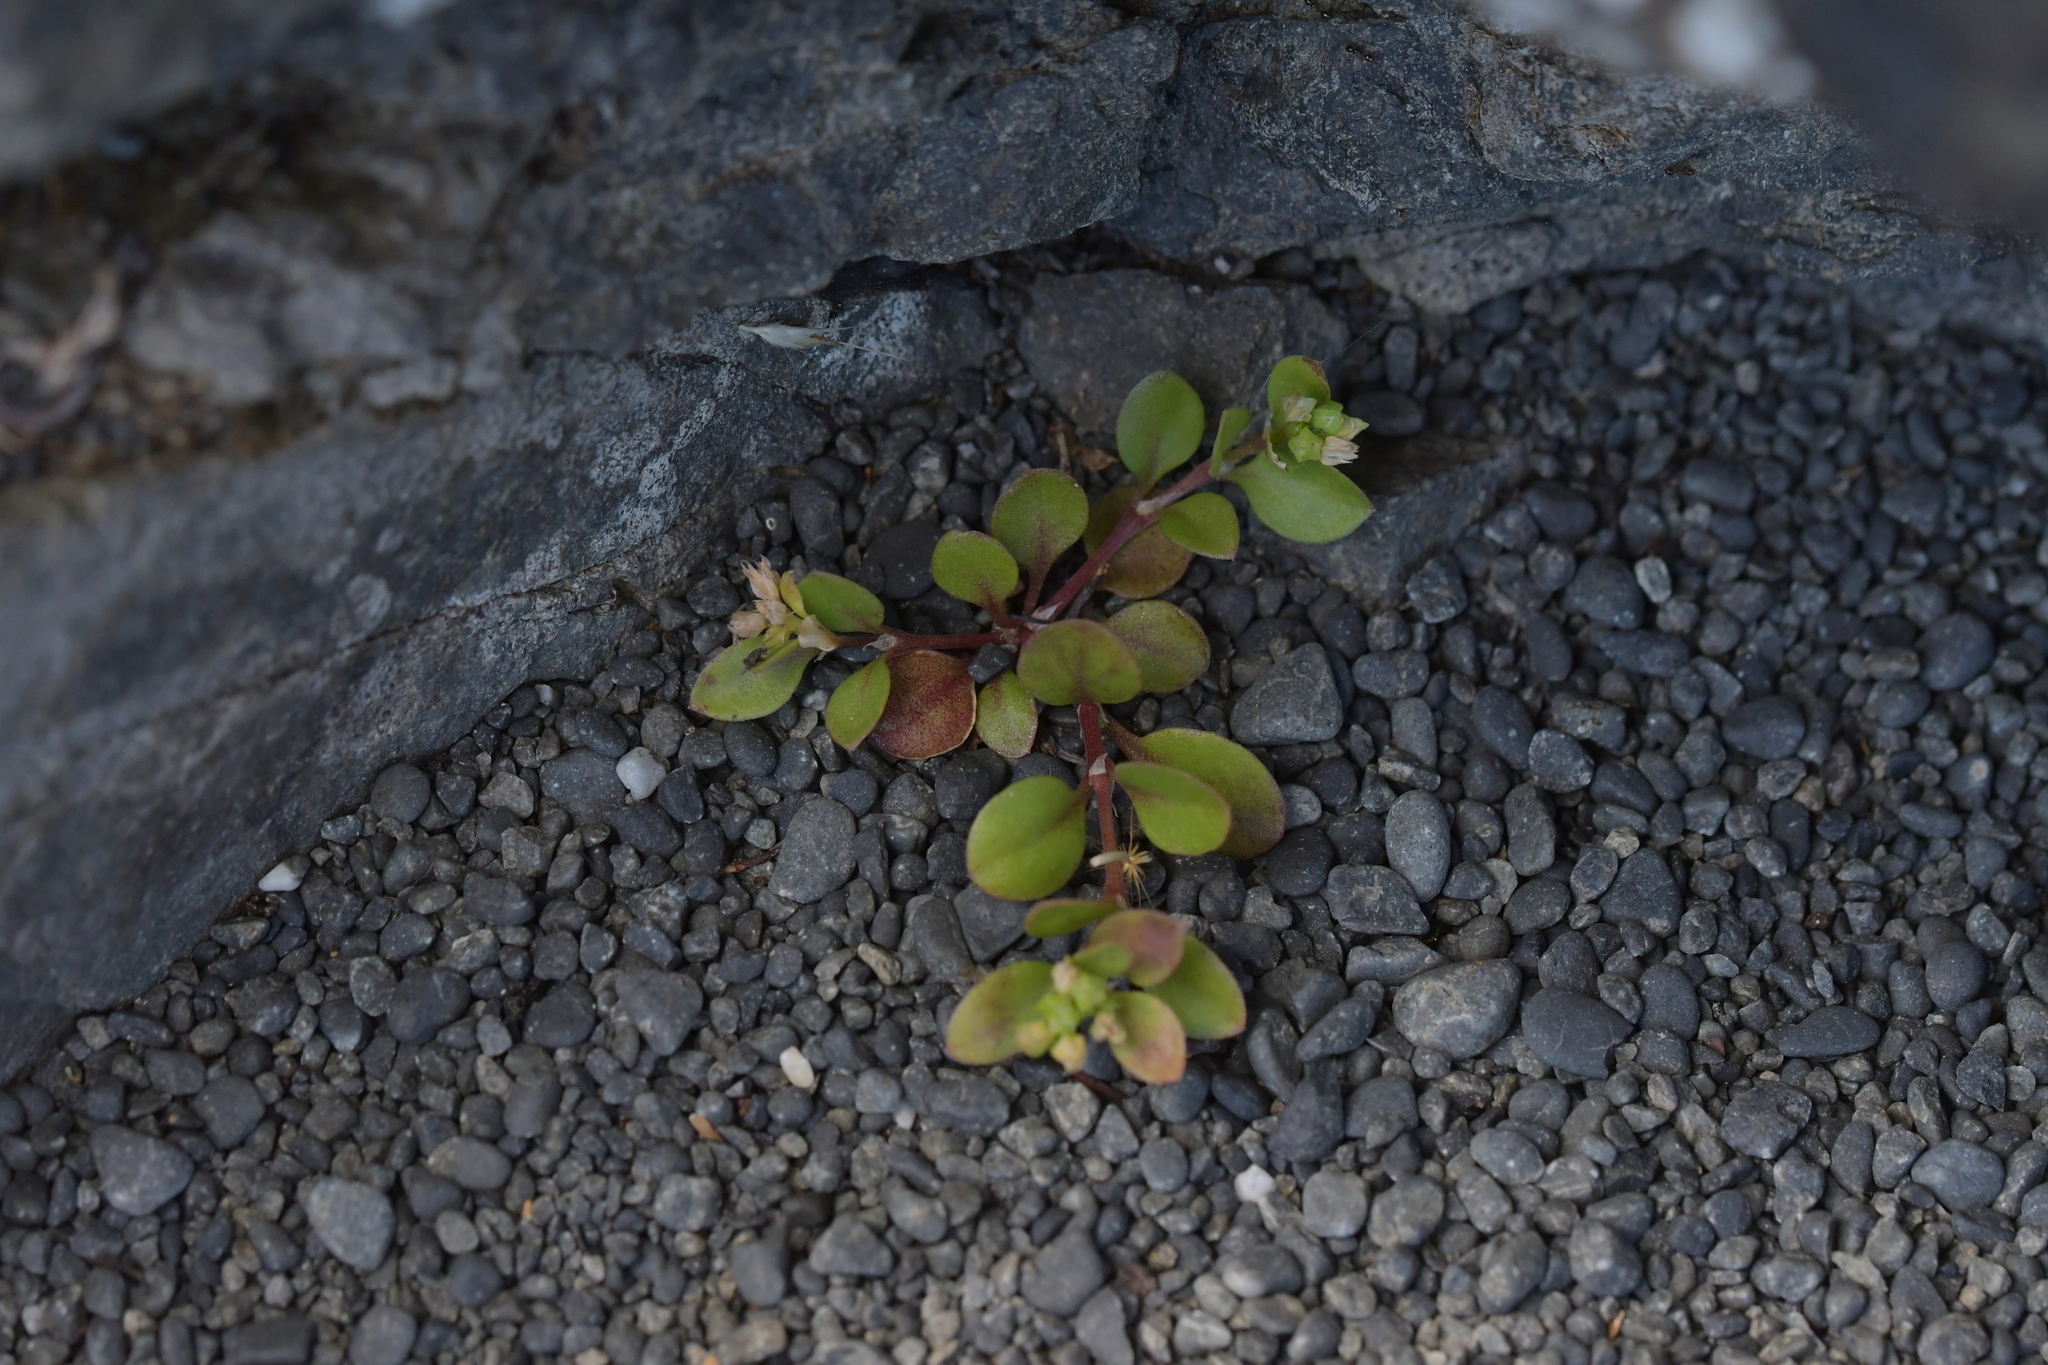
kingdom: Plantae
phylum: Tracheophyta
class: Magnoliopsida
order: Caryophyllales
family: Caryophyllaceae
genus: Polycarpon
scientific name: Polycarpon tetraphyllum
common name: Four-leaved all-seed
